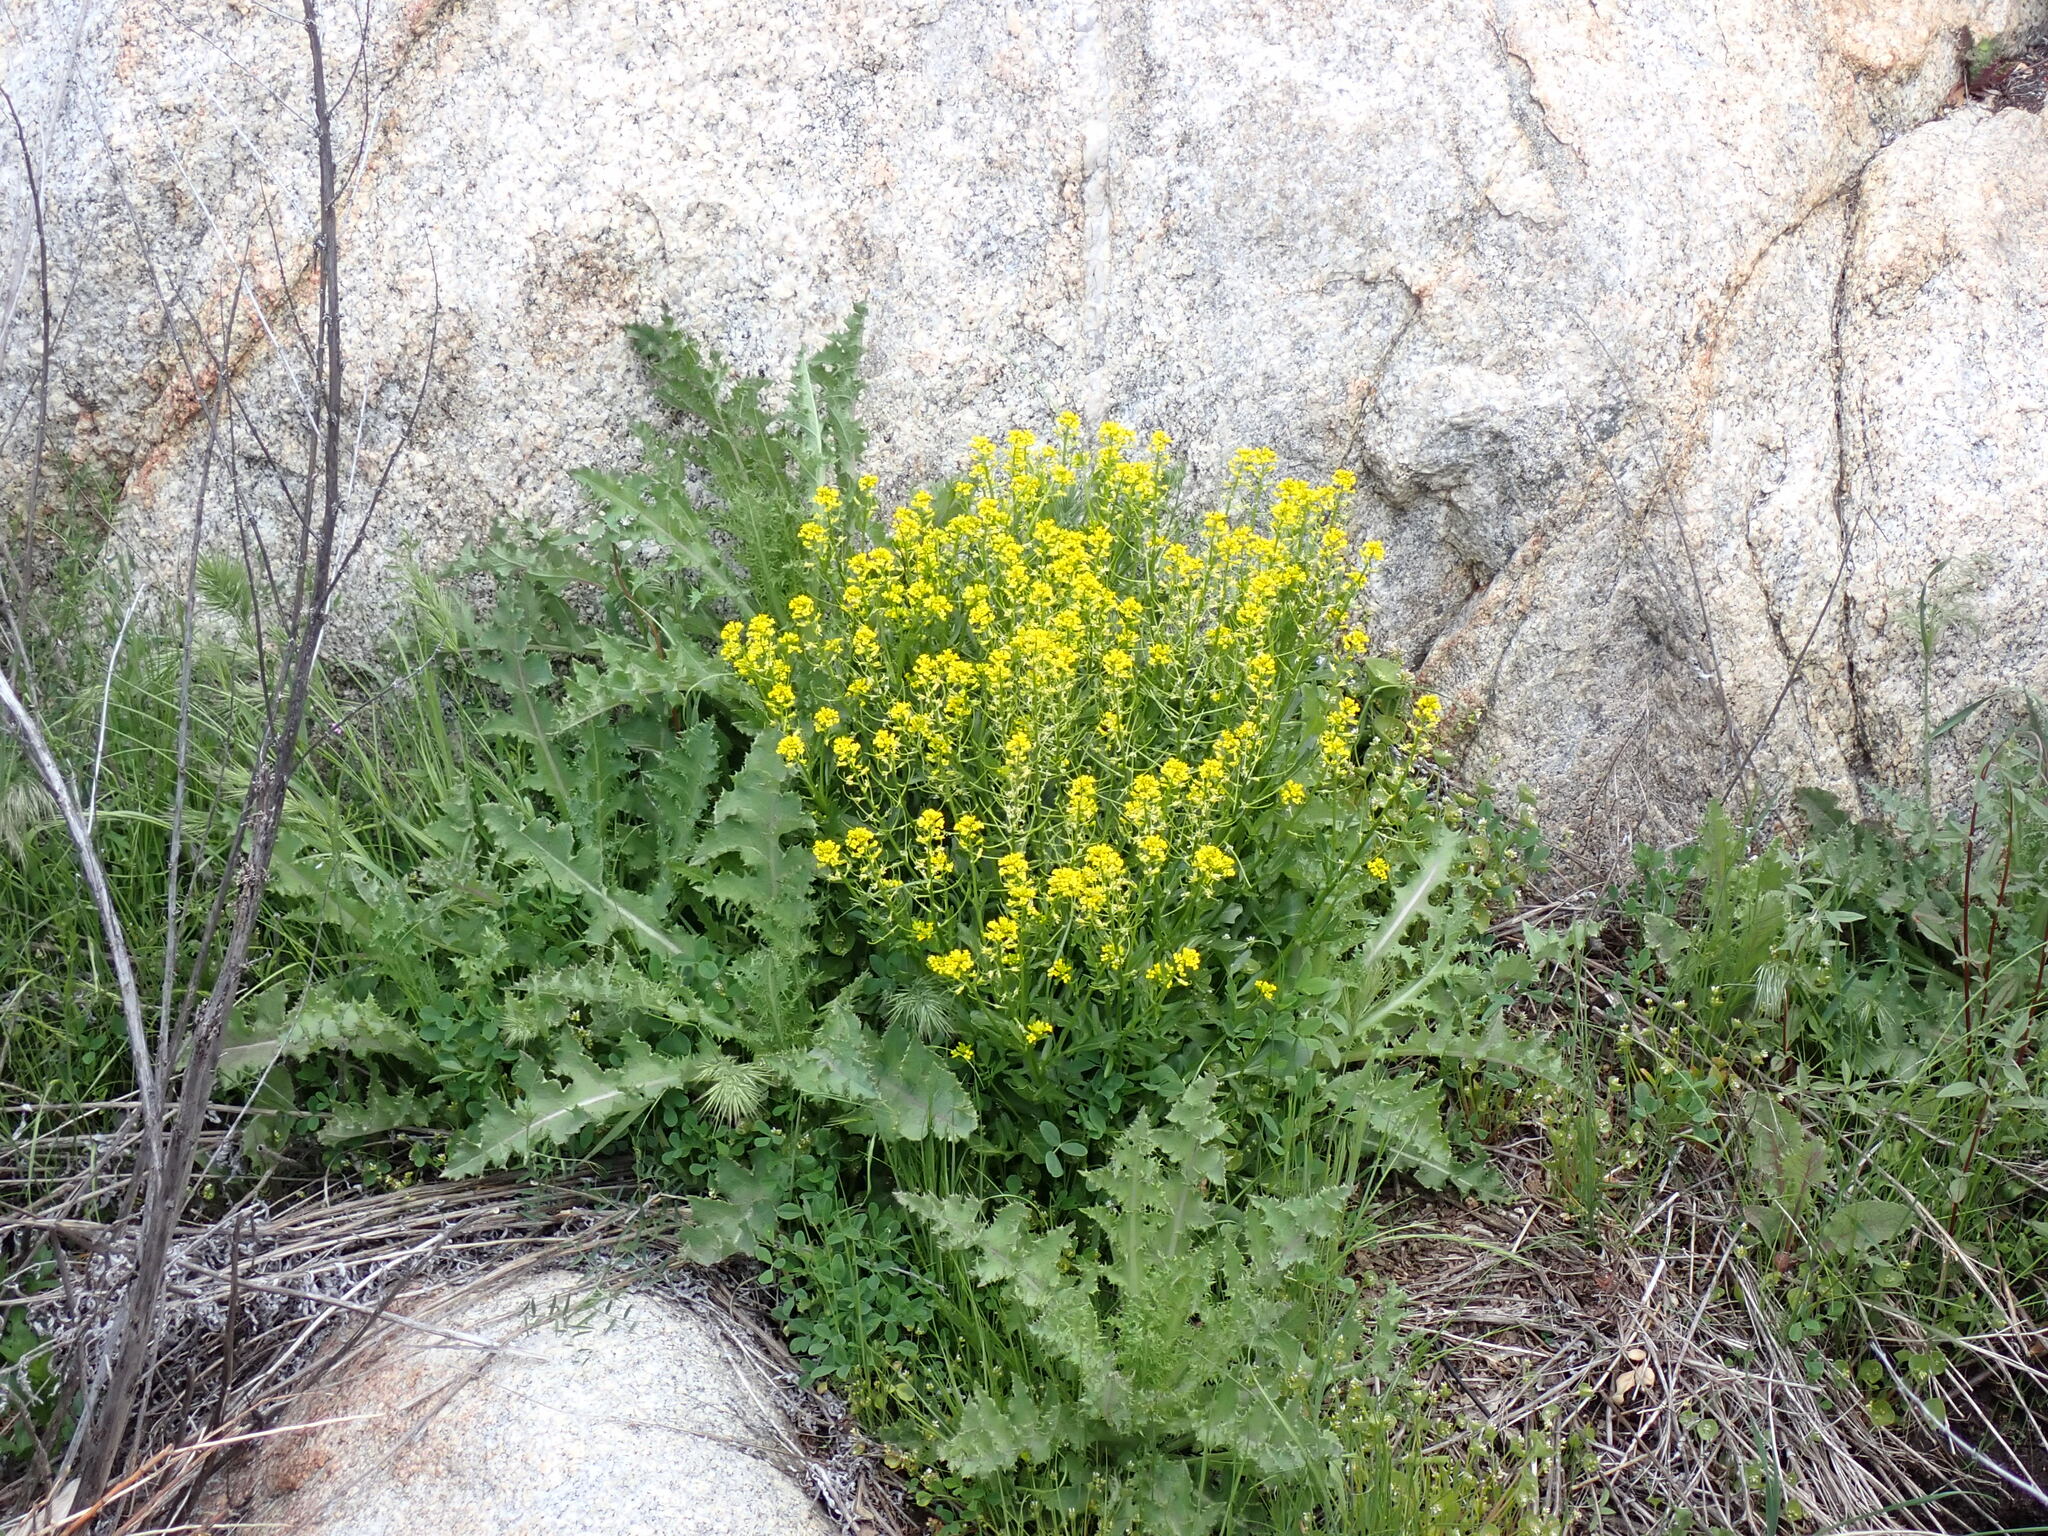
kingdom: Plantae
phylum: Tracheophyta
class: Magnoliopsida
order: Brassicales
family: Brassicaceae
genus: Barbarea
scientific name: Barbarea orthoceras
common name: American wintercress
